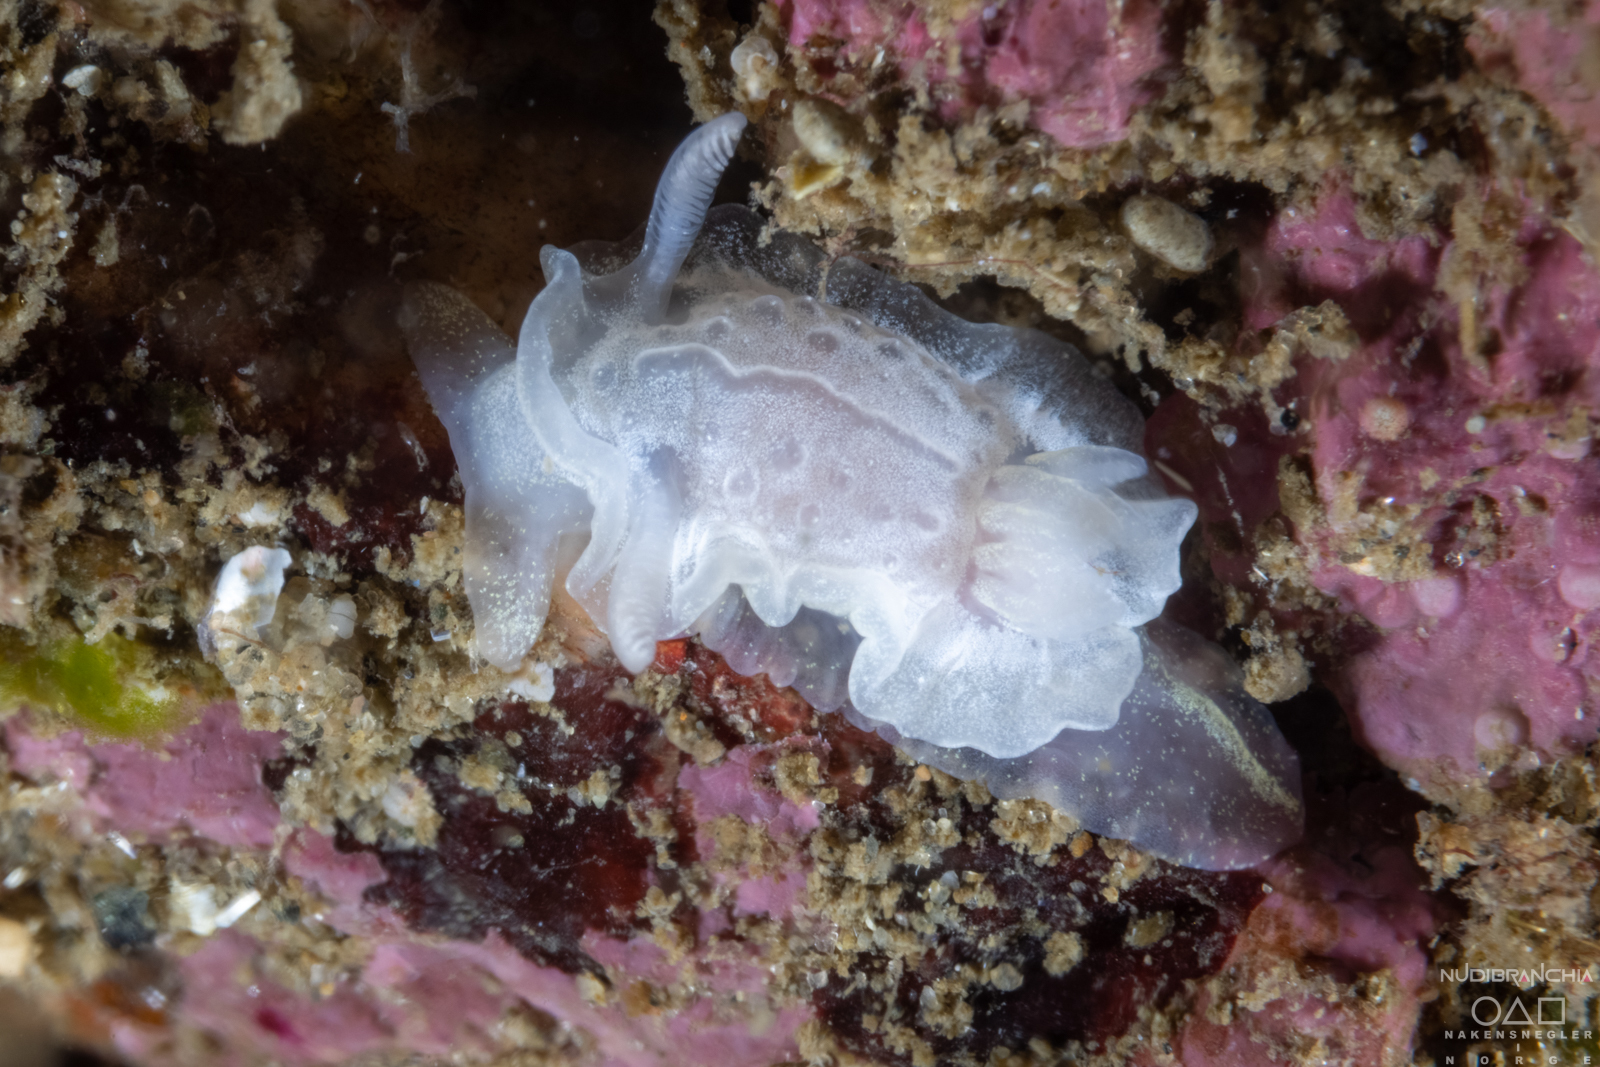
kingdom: Animalia
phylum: Mollusca
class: Gastropoda
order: Nudibranchia
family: Goniodorididae
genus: Okenia
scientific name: Okenia
